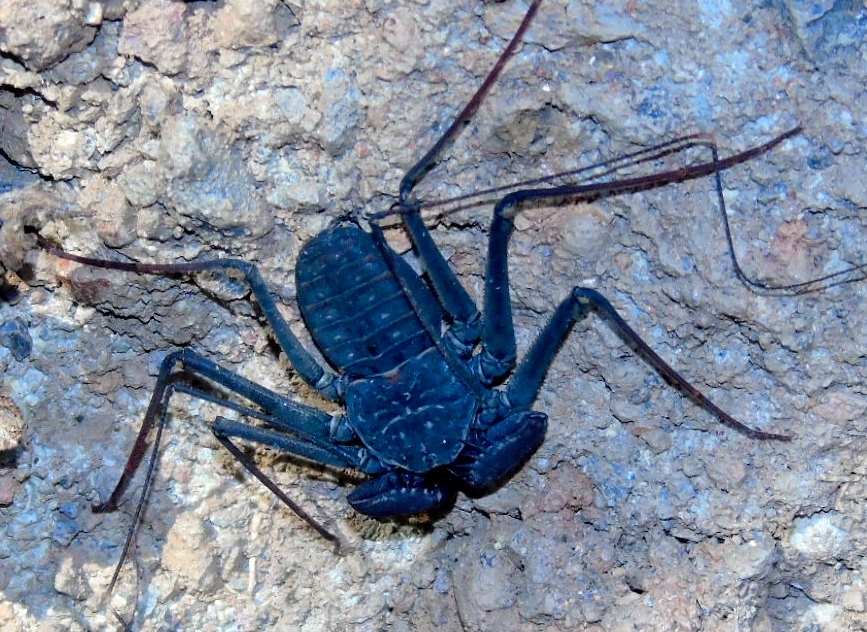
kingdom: Animalia
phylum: Arthropoda
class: Arachnida
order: Amblypygi
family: Phrynidae
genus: Phrynus
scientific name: Phrynus operculatus
